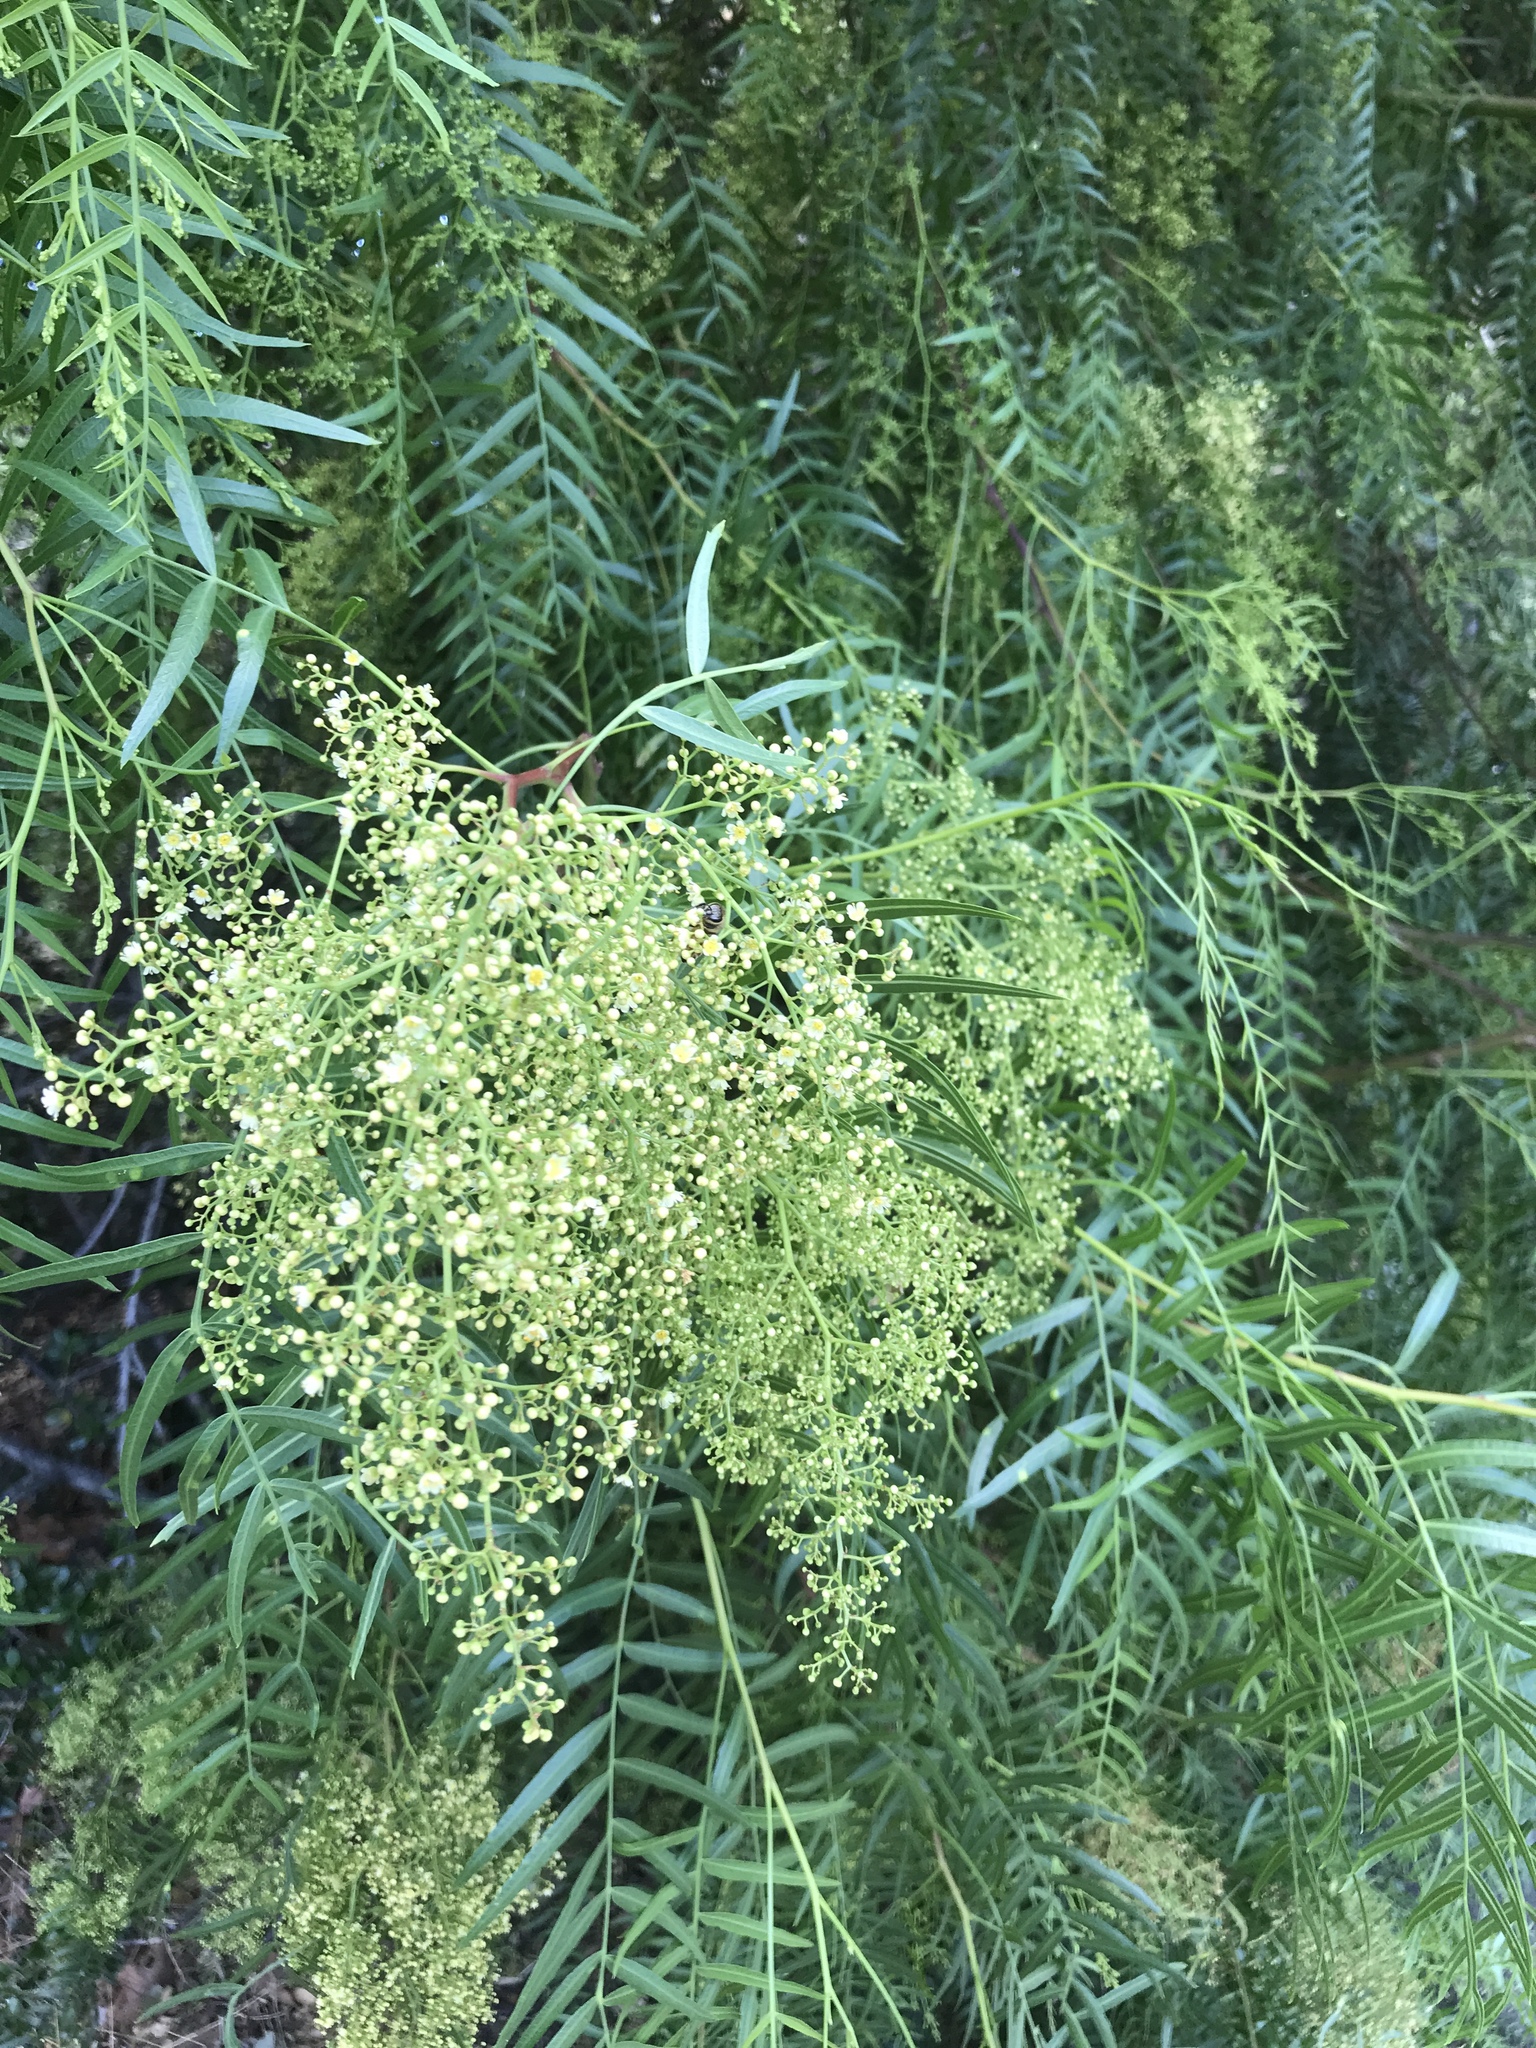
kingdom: Plantae
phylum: Tracheophyta
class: Magnoliopsida
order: Sapindales
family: Anacardiaceae
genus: Schinus
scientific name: Schinus molle
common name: Peruvian peppertree
